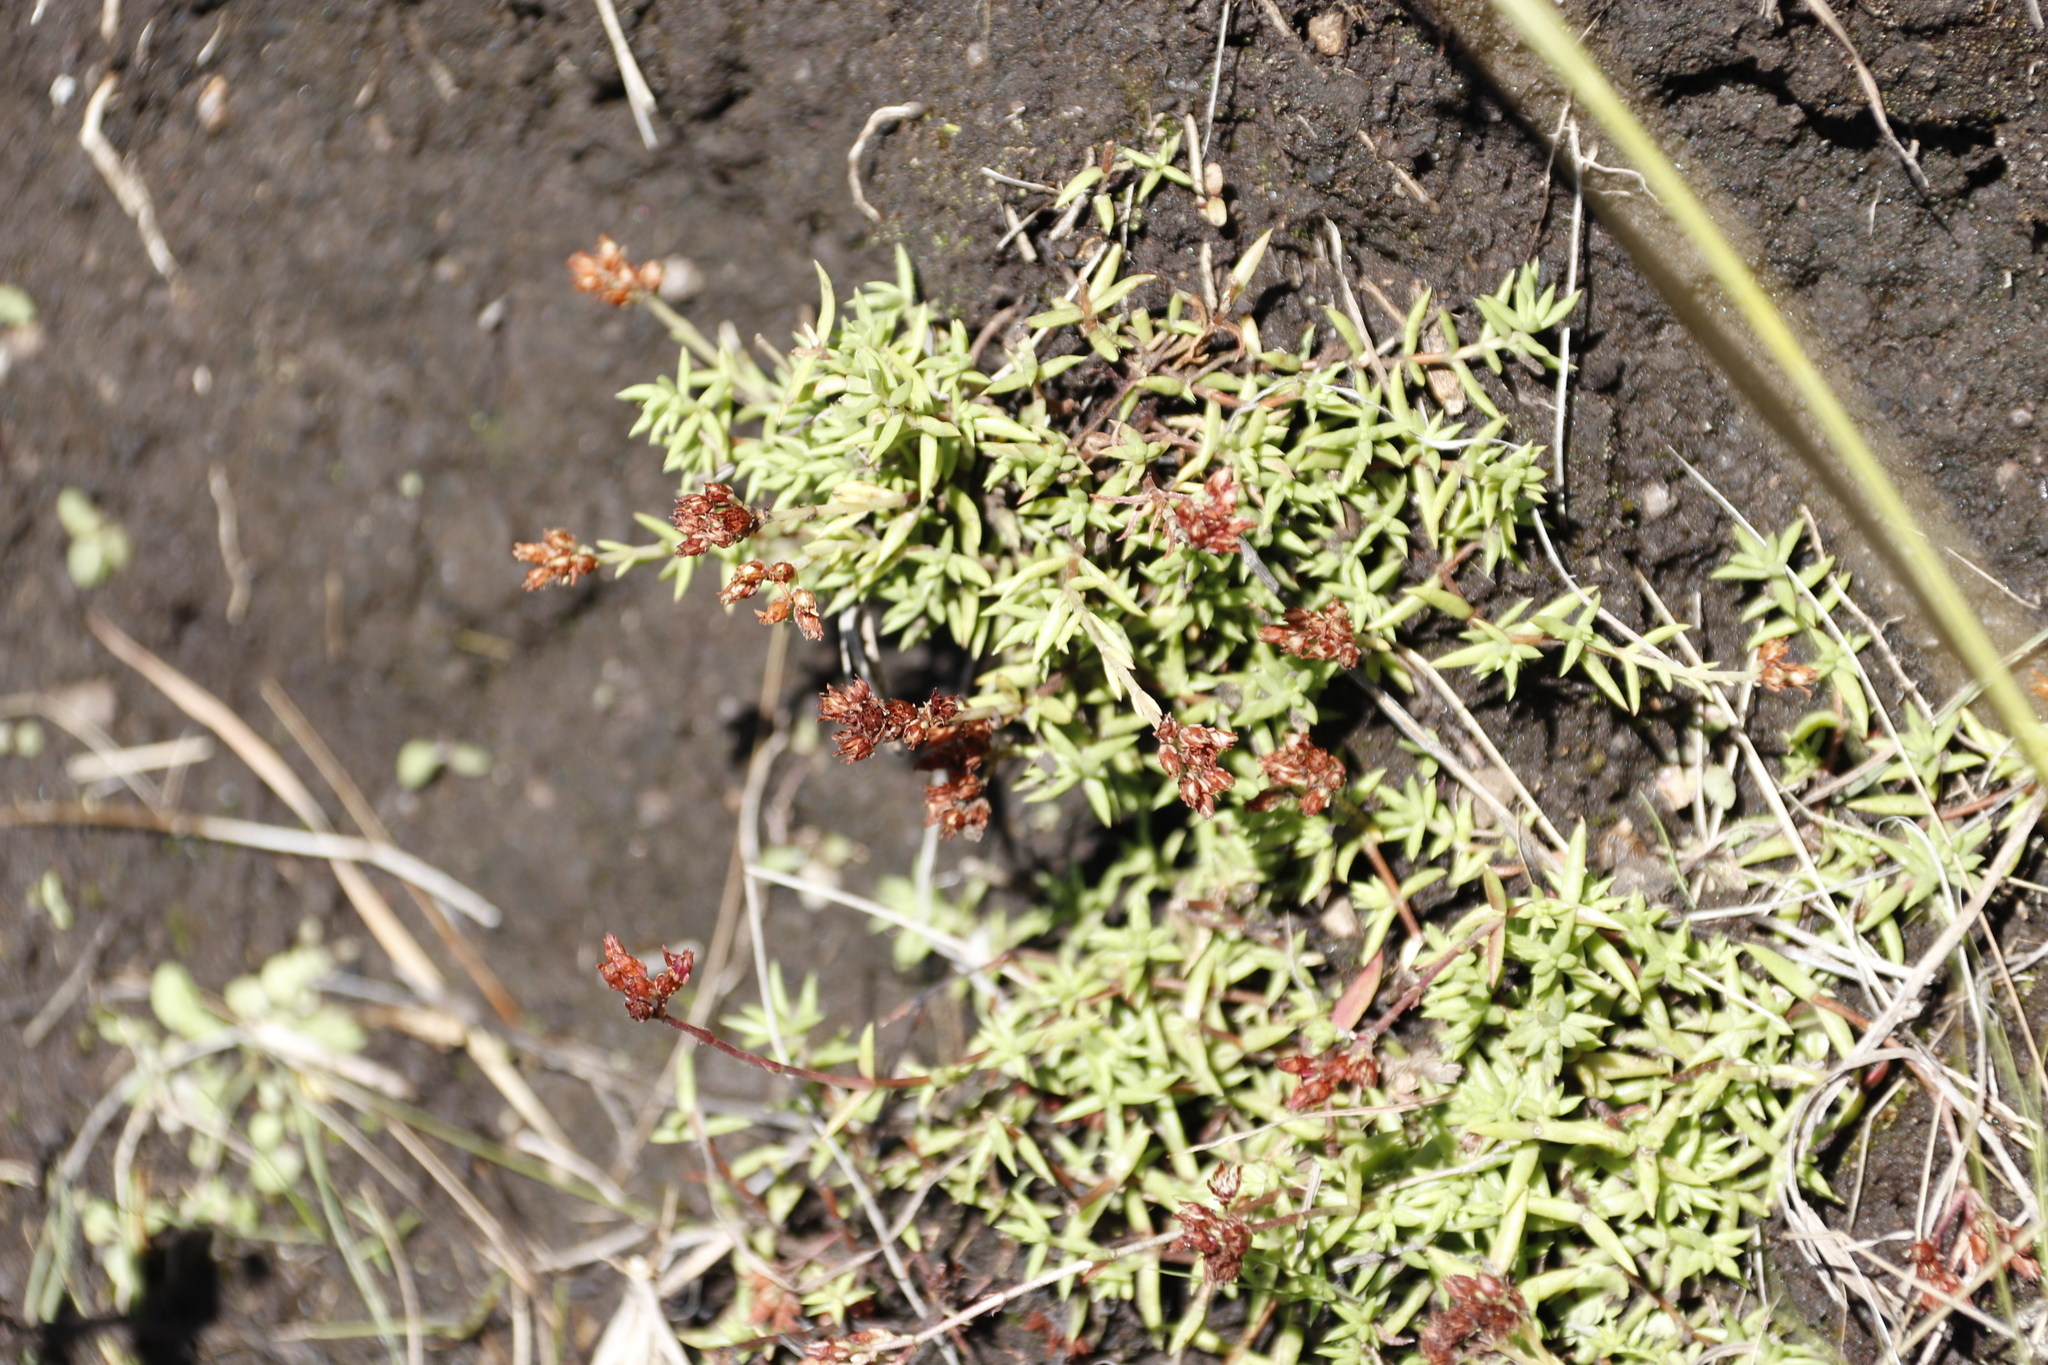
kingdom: Plantae
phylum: Tracheophyta
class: Magnoliopsida
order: Saxifragales
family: Crassulaceae
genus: Crassula
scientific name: Crassula dependens
